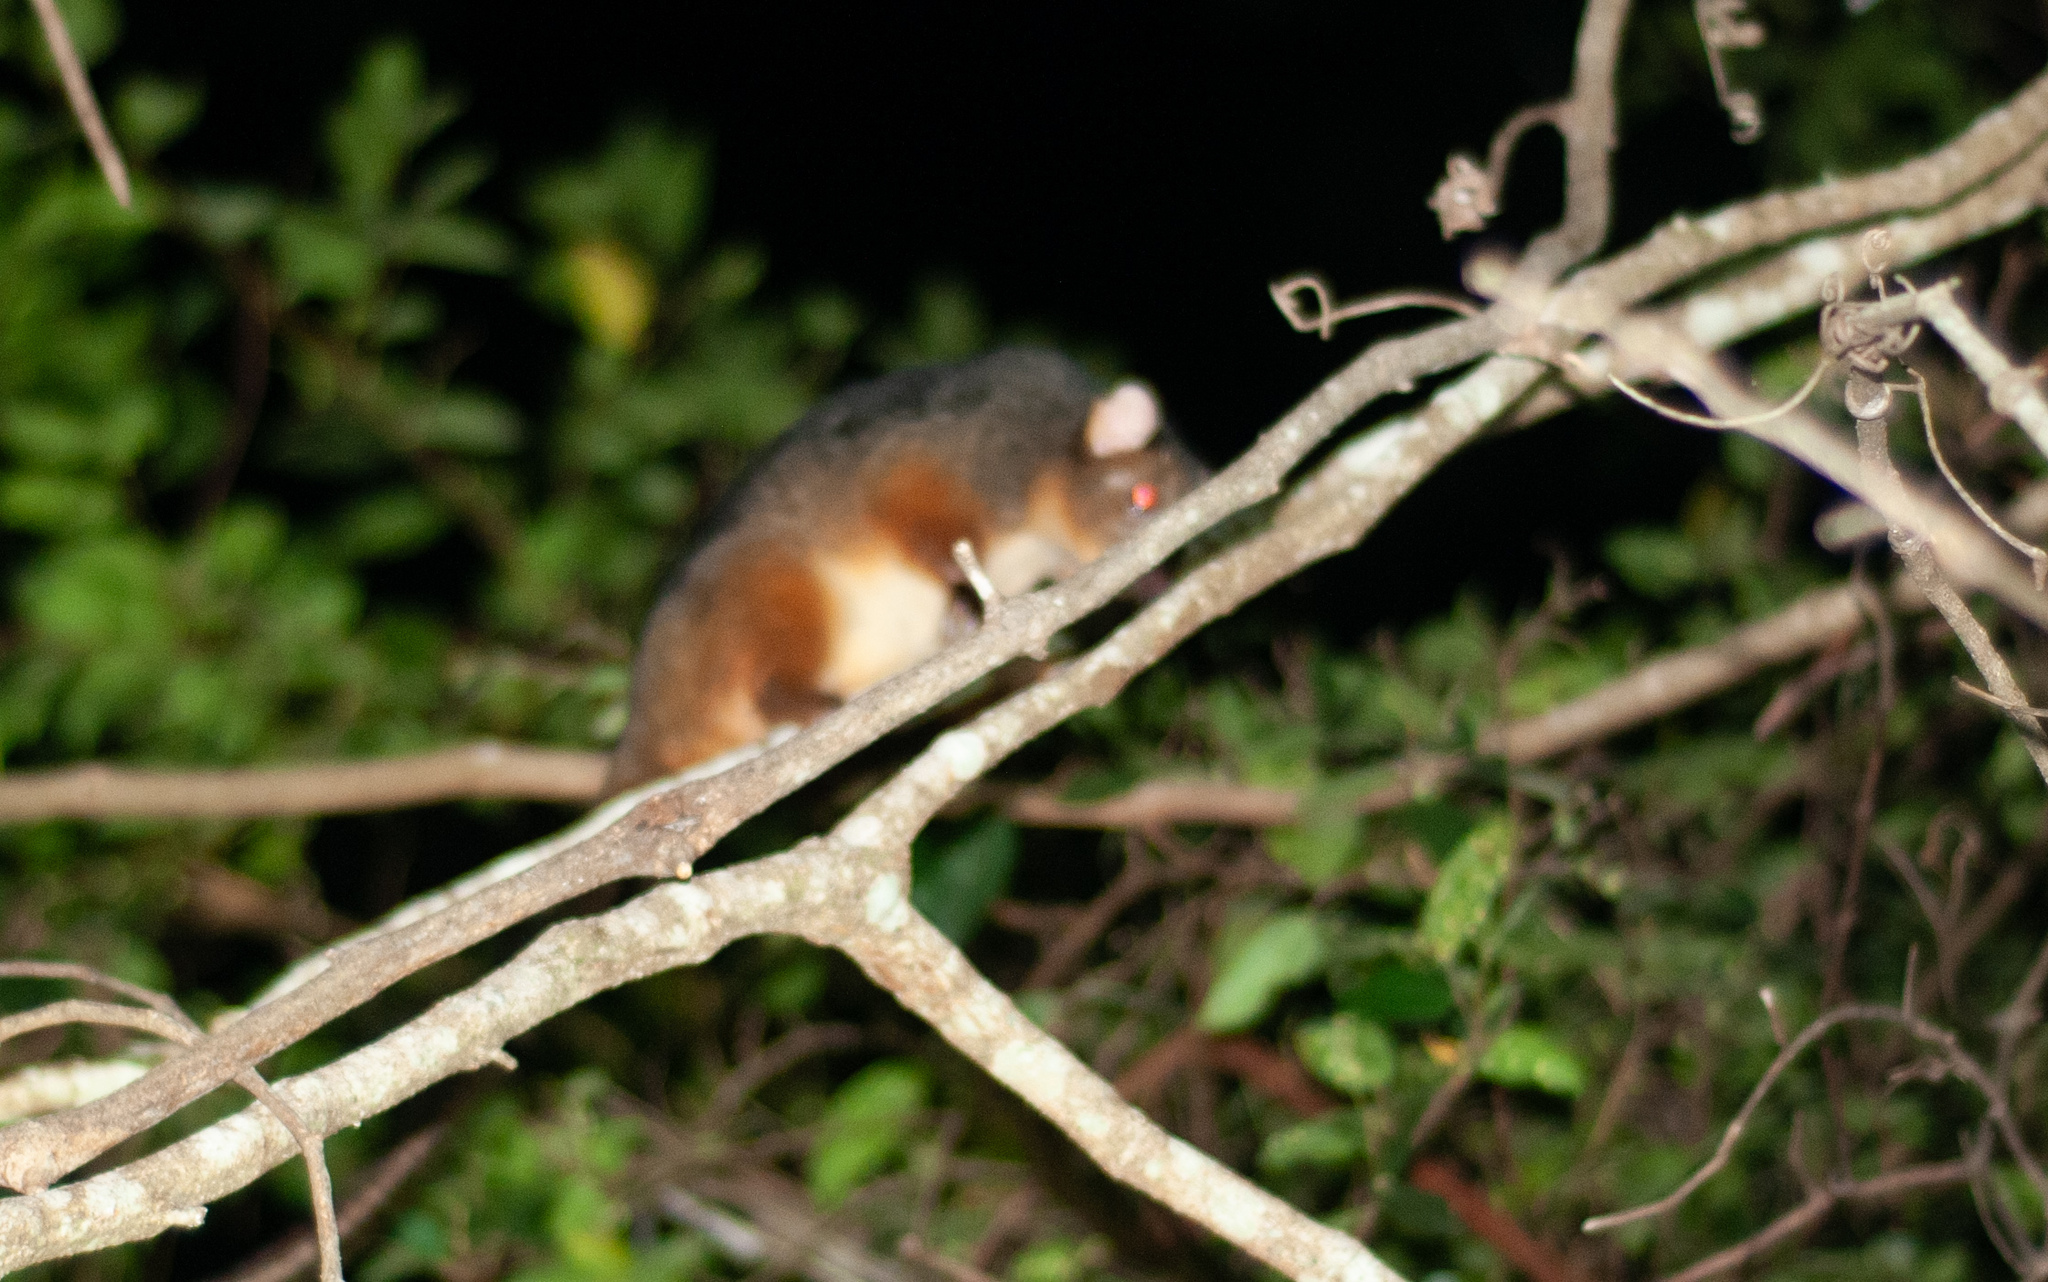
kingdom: Animalia
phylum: Chordata
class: Mammalia
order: Diprotodontia
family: Pseudocheiridae
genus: Pseudocheirus
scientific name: Pseudocheirus peregrinus
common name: Common ringtail possum
